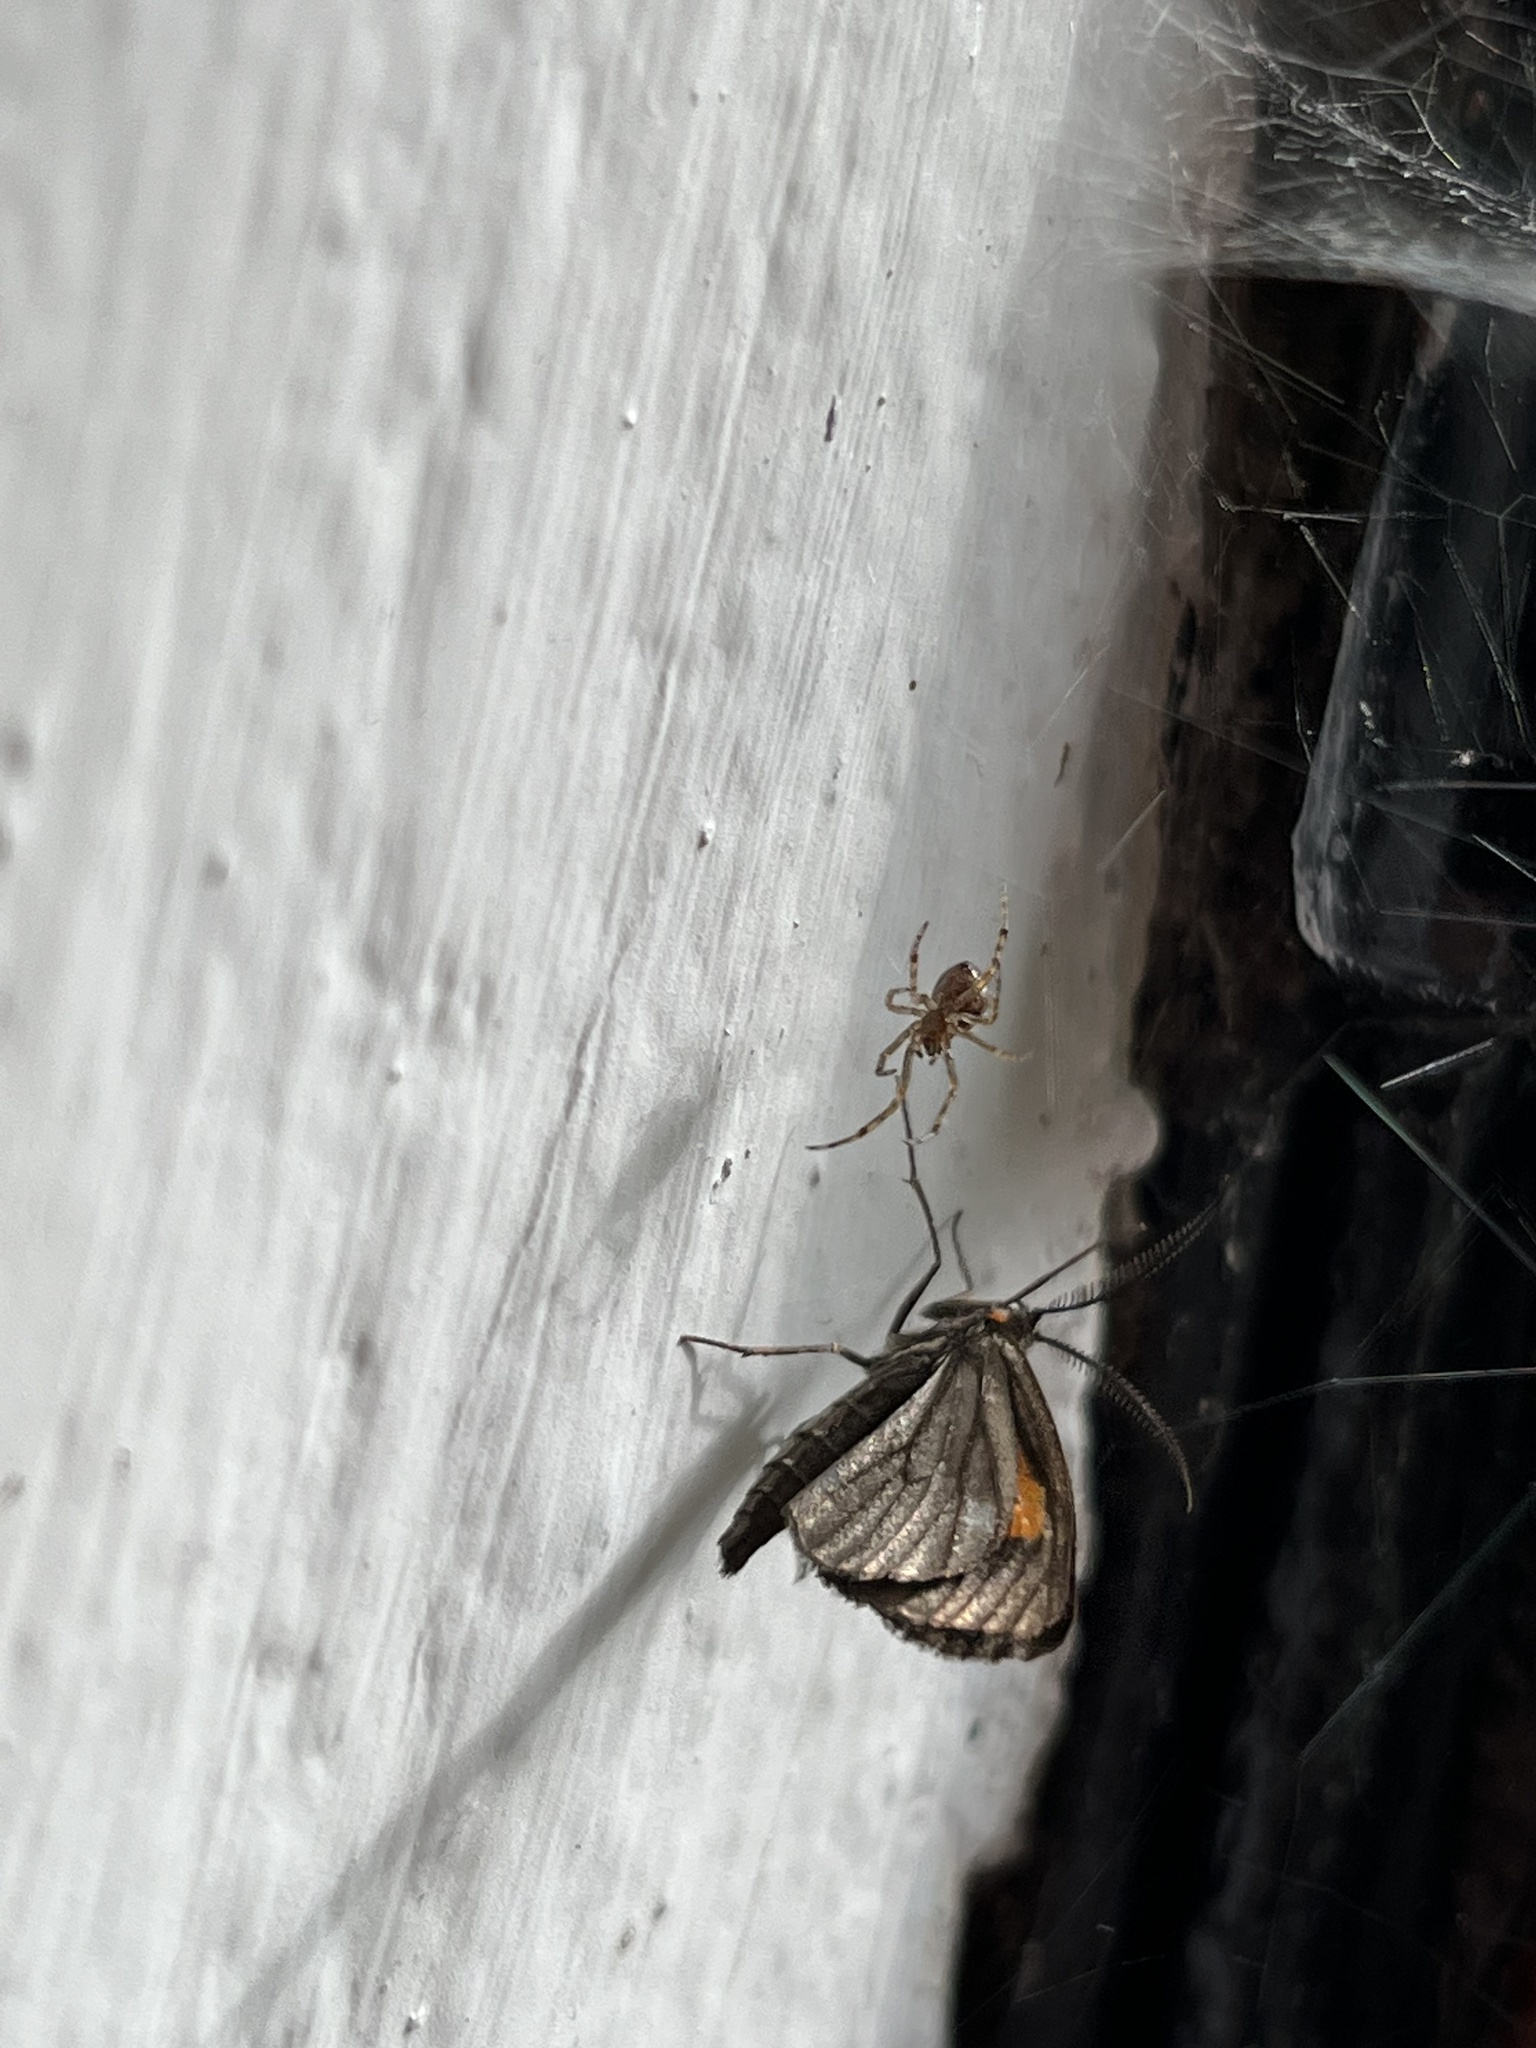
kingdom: Animalia
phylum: Arthropoda
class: Insecta
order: Lepidoptera
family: Geometridae
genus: Sangalopsis
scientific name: Sangalopsis ficifera
